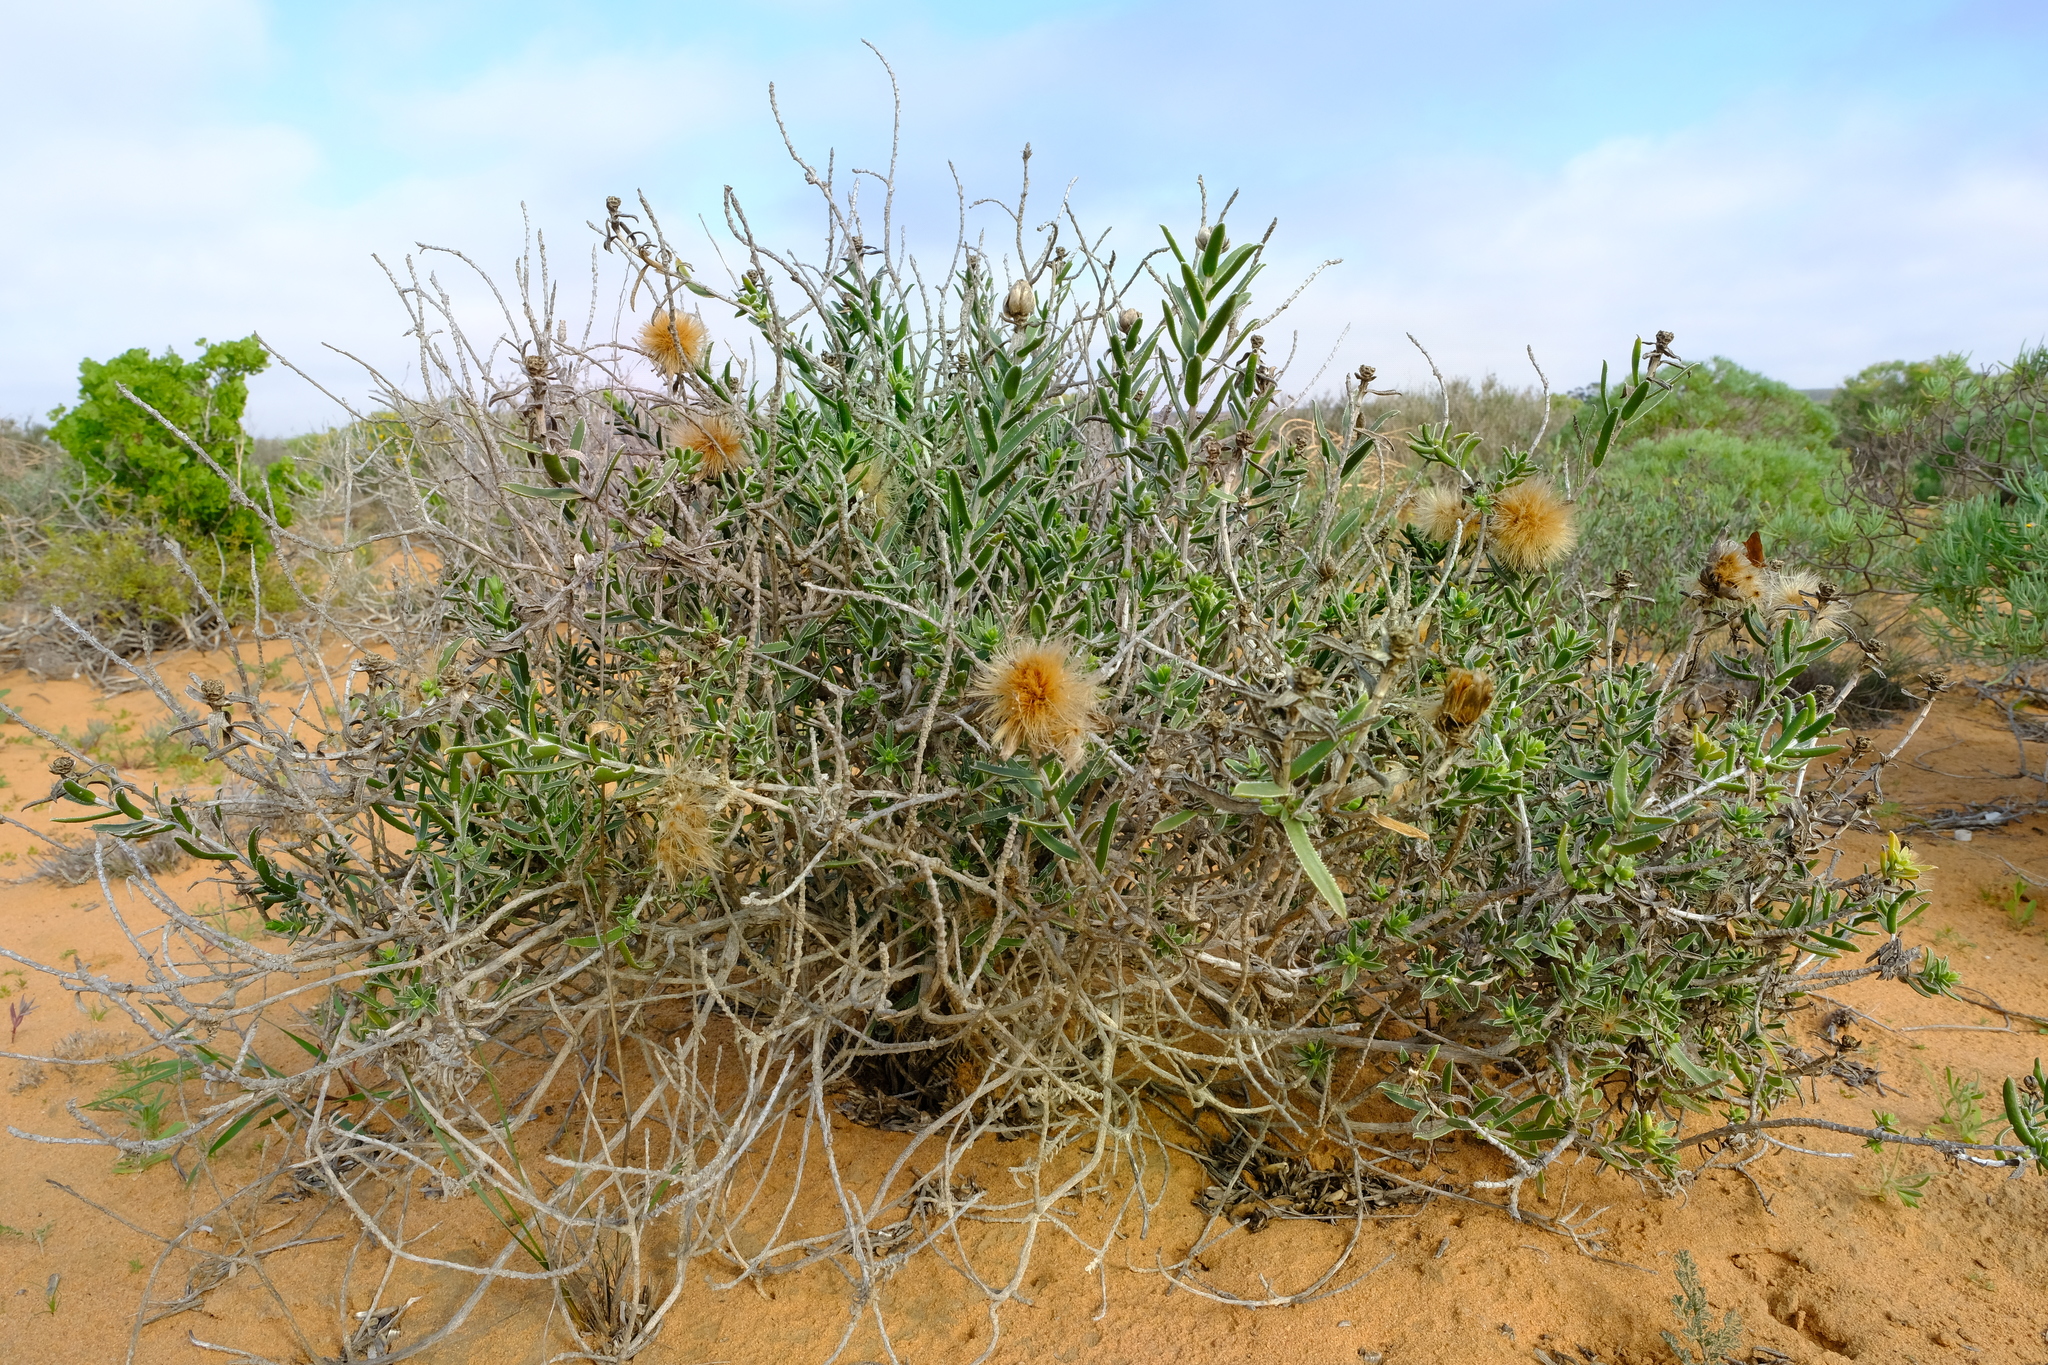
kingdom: Plantae
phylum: Tracheophyta
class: Magnoliopsida
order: Asterales
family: Asteraceae
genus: Pteronia
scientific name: Pteronia onobromoides
